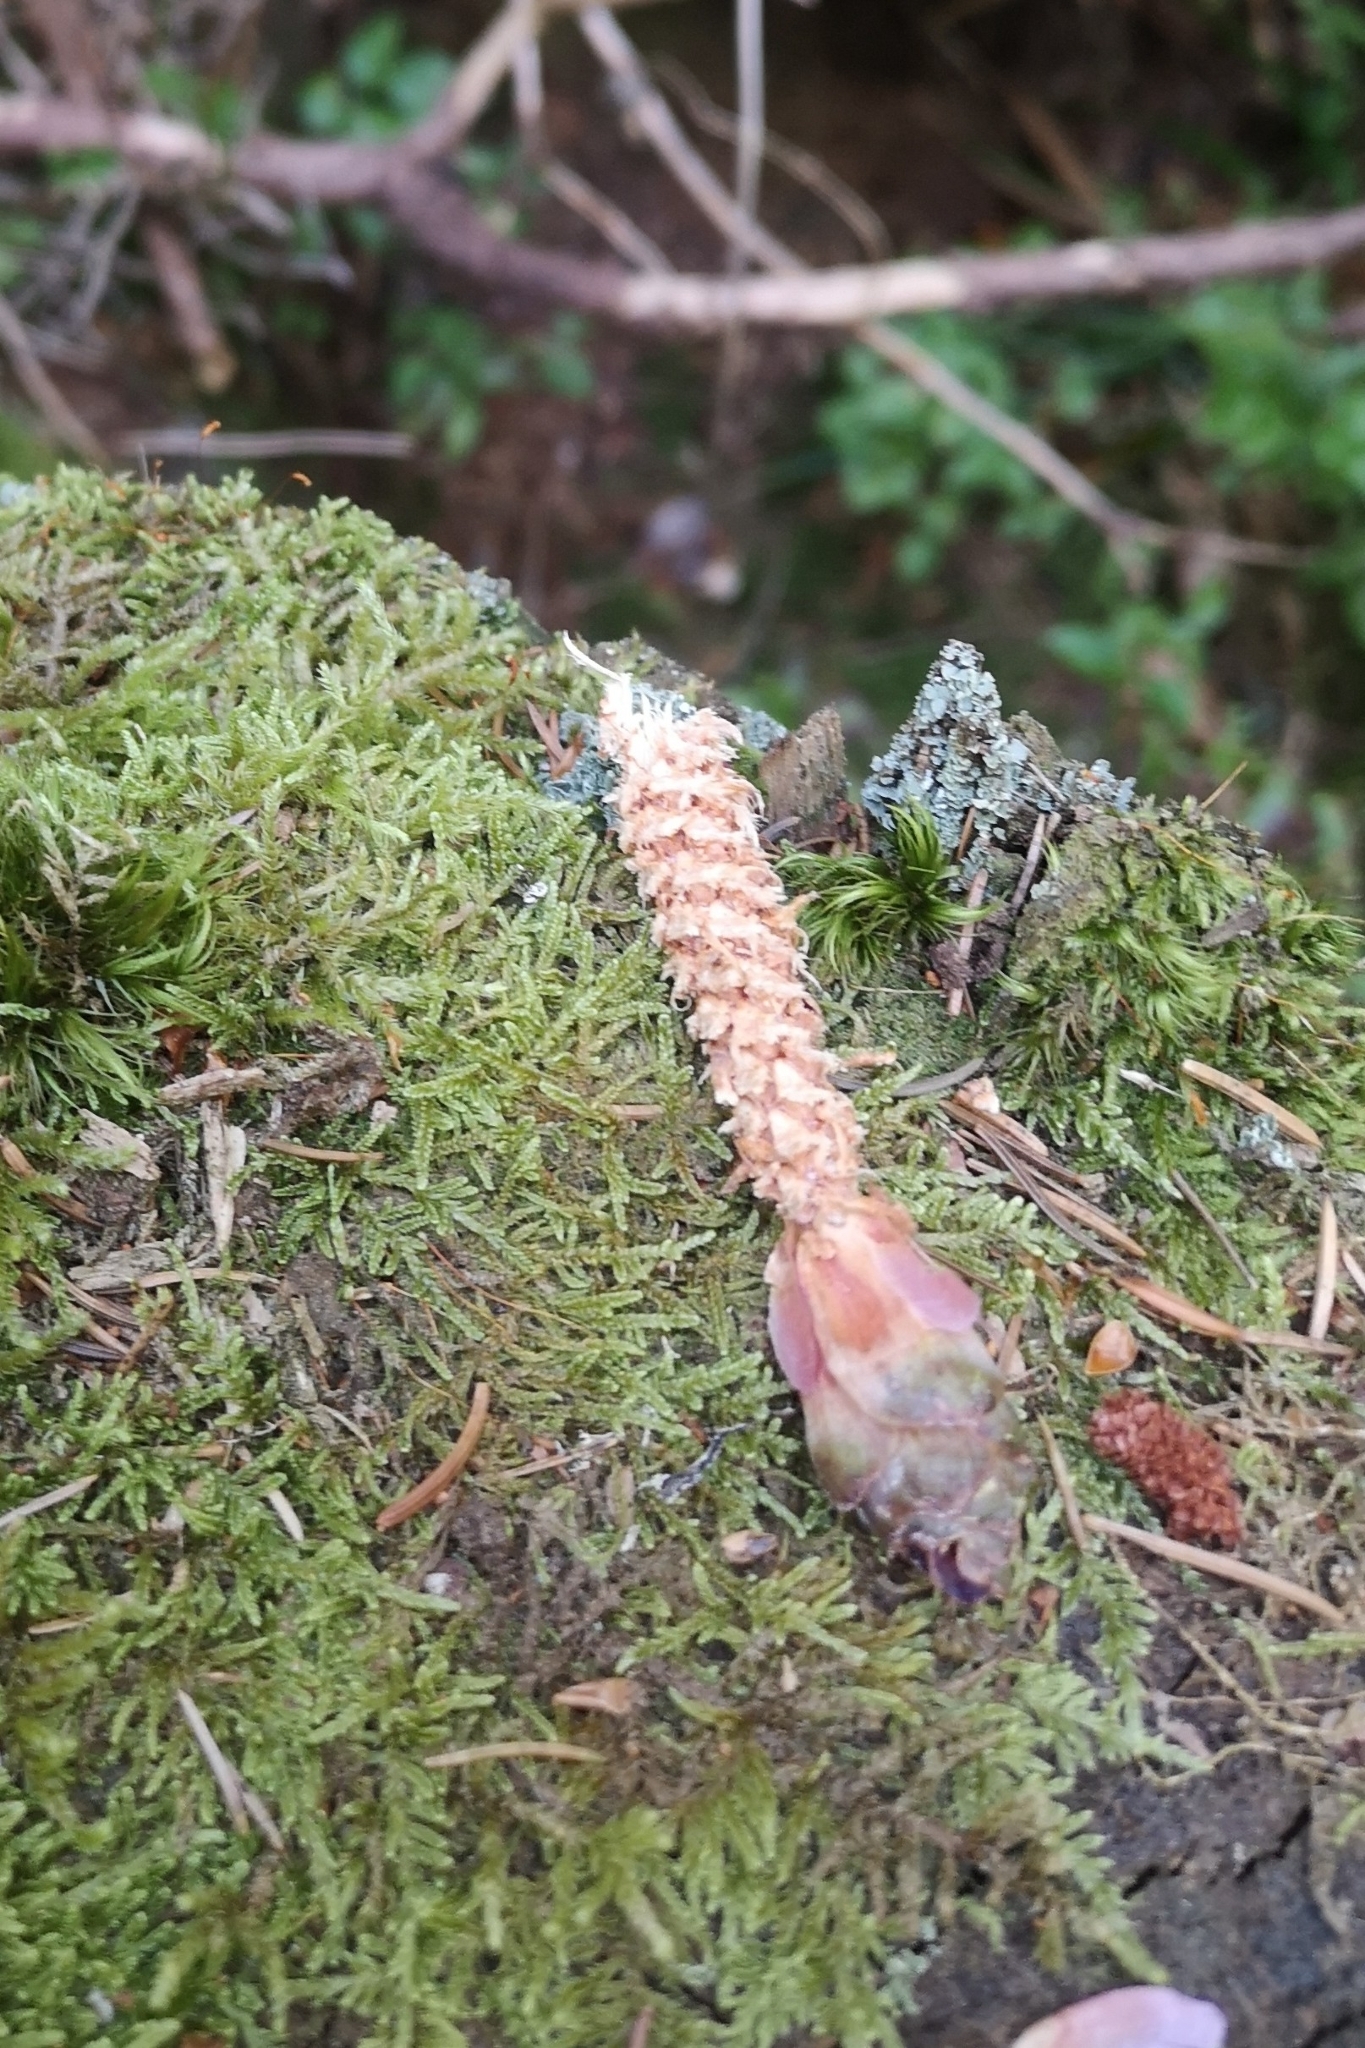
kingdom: Animalia
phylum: Chordata
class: Mammalia
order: Rodentia
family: Sciuridae
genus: Sciurus
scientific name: Sciurus vulgaris
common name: Eurasian red squirrel
